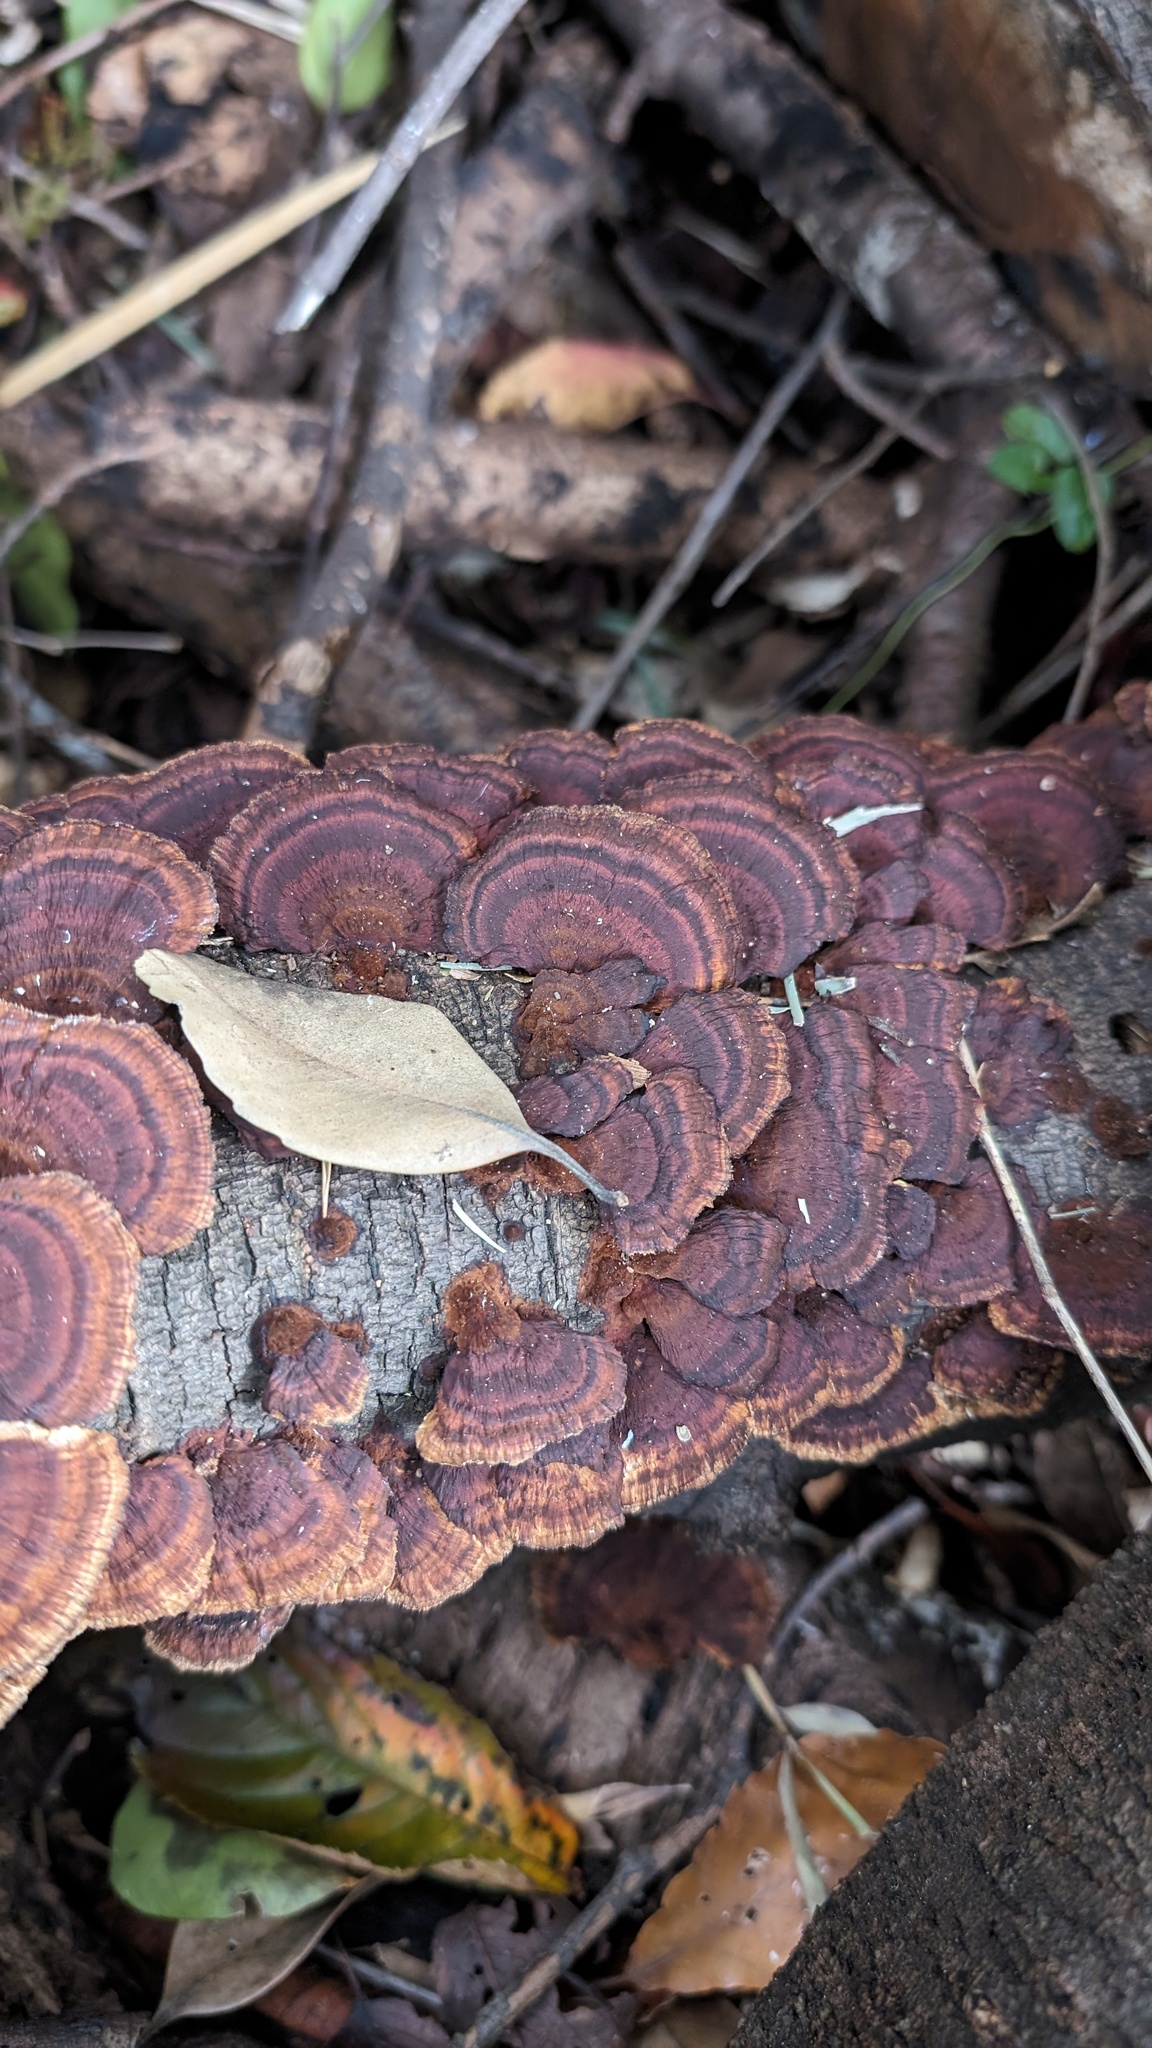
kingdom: Fungi
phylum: Basidiomycota
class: Agaricomycetes
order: Polyporales
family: Polyporaceae
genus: Daedaleopsis
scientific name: Daedaleopsis tricolor
